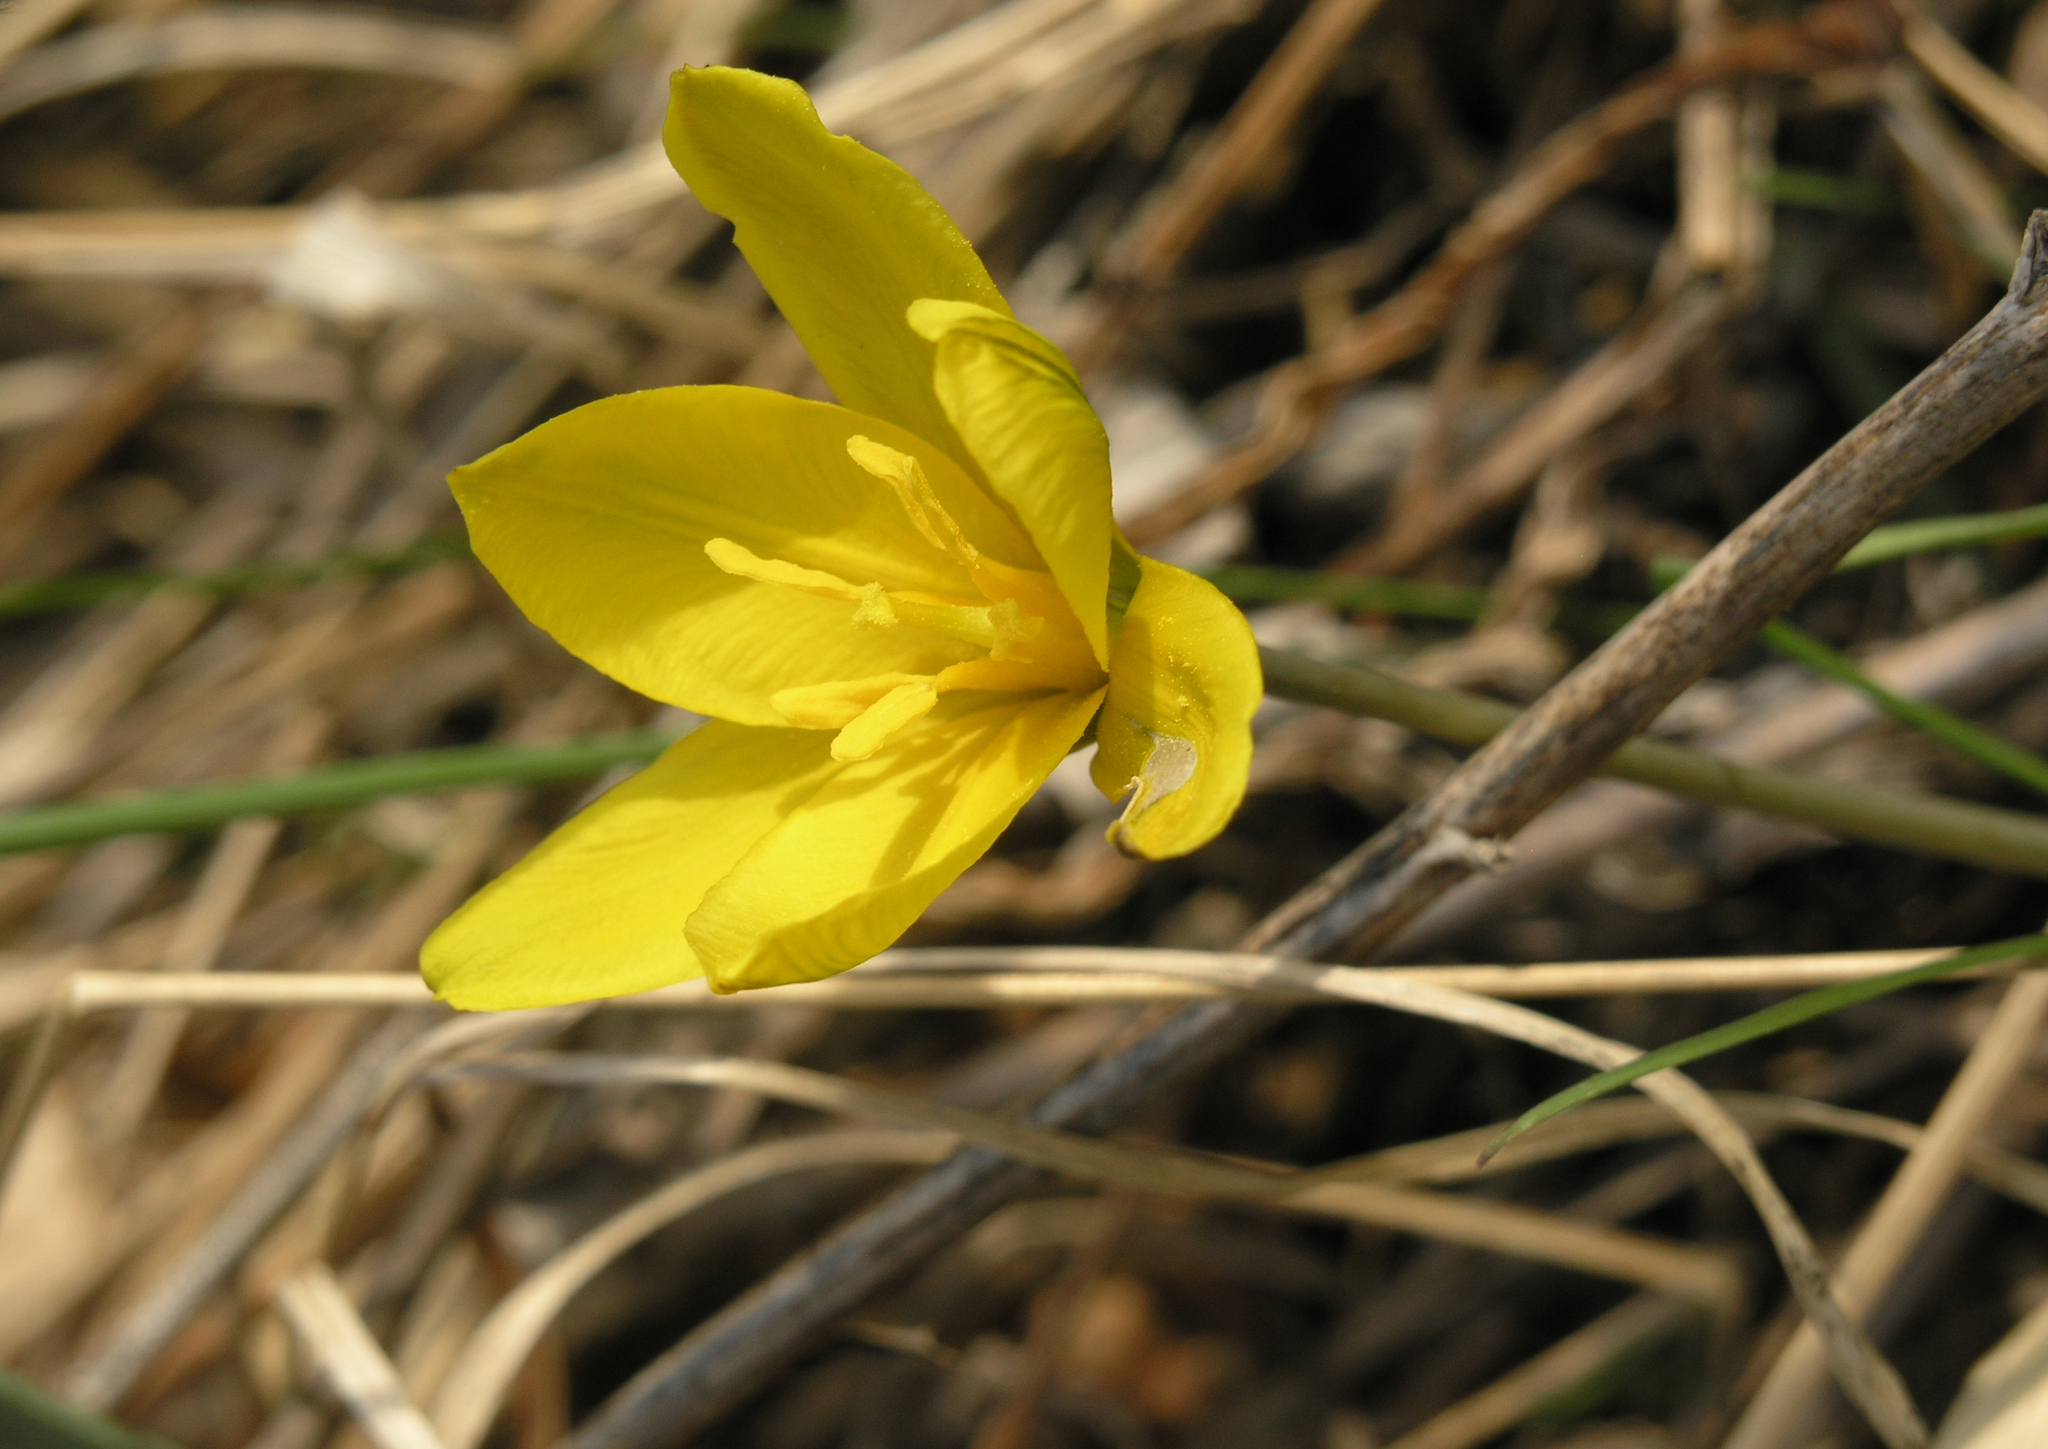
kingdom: Plantae
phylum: Tracheophyta
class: Liliopsida
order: Liliales
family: Liliaceae
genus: Tulipa
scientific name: Tulipa uniflora
